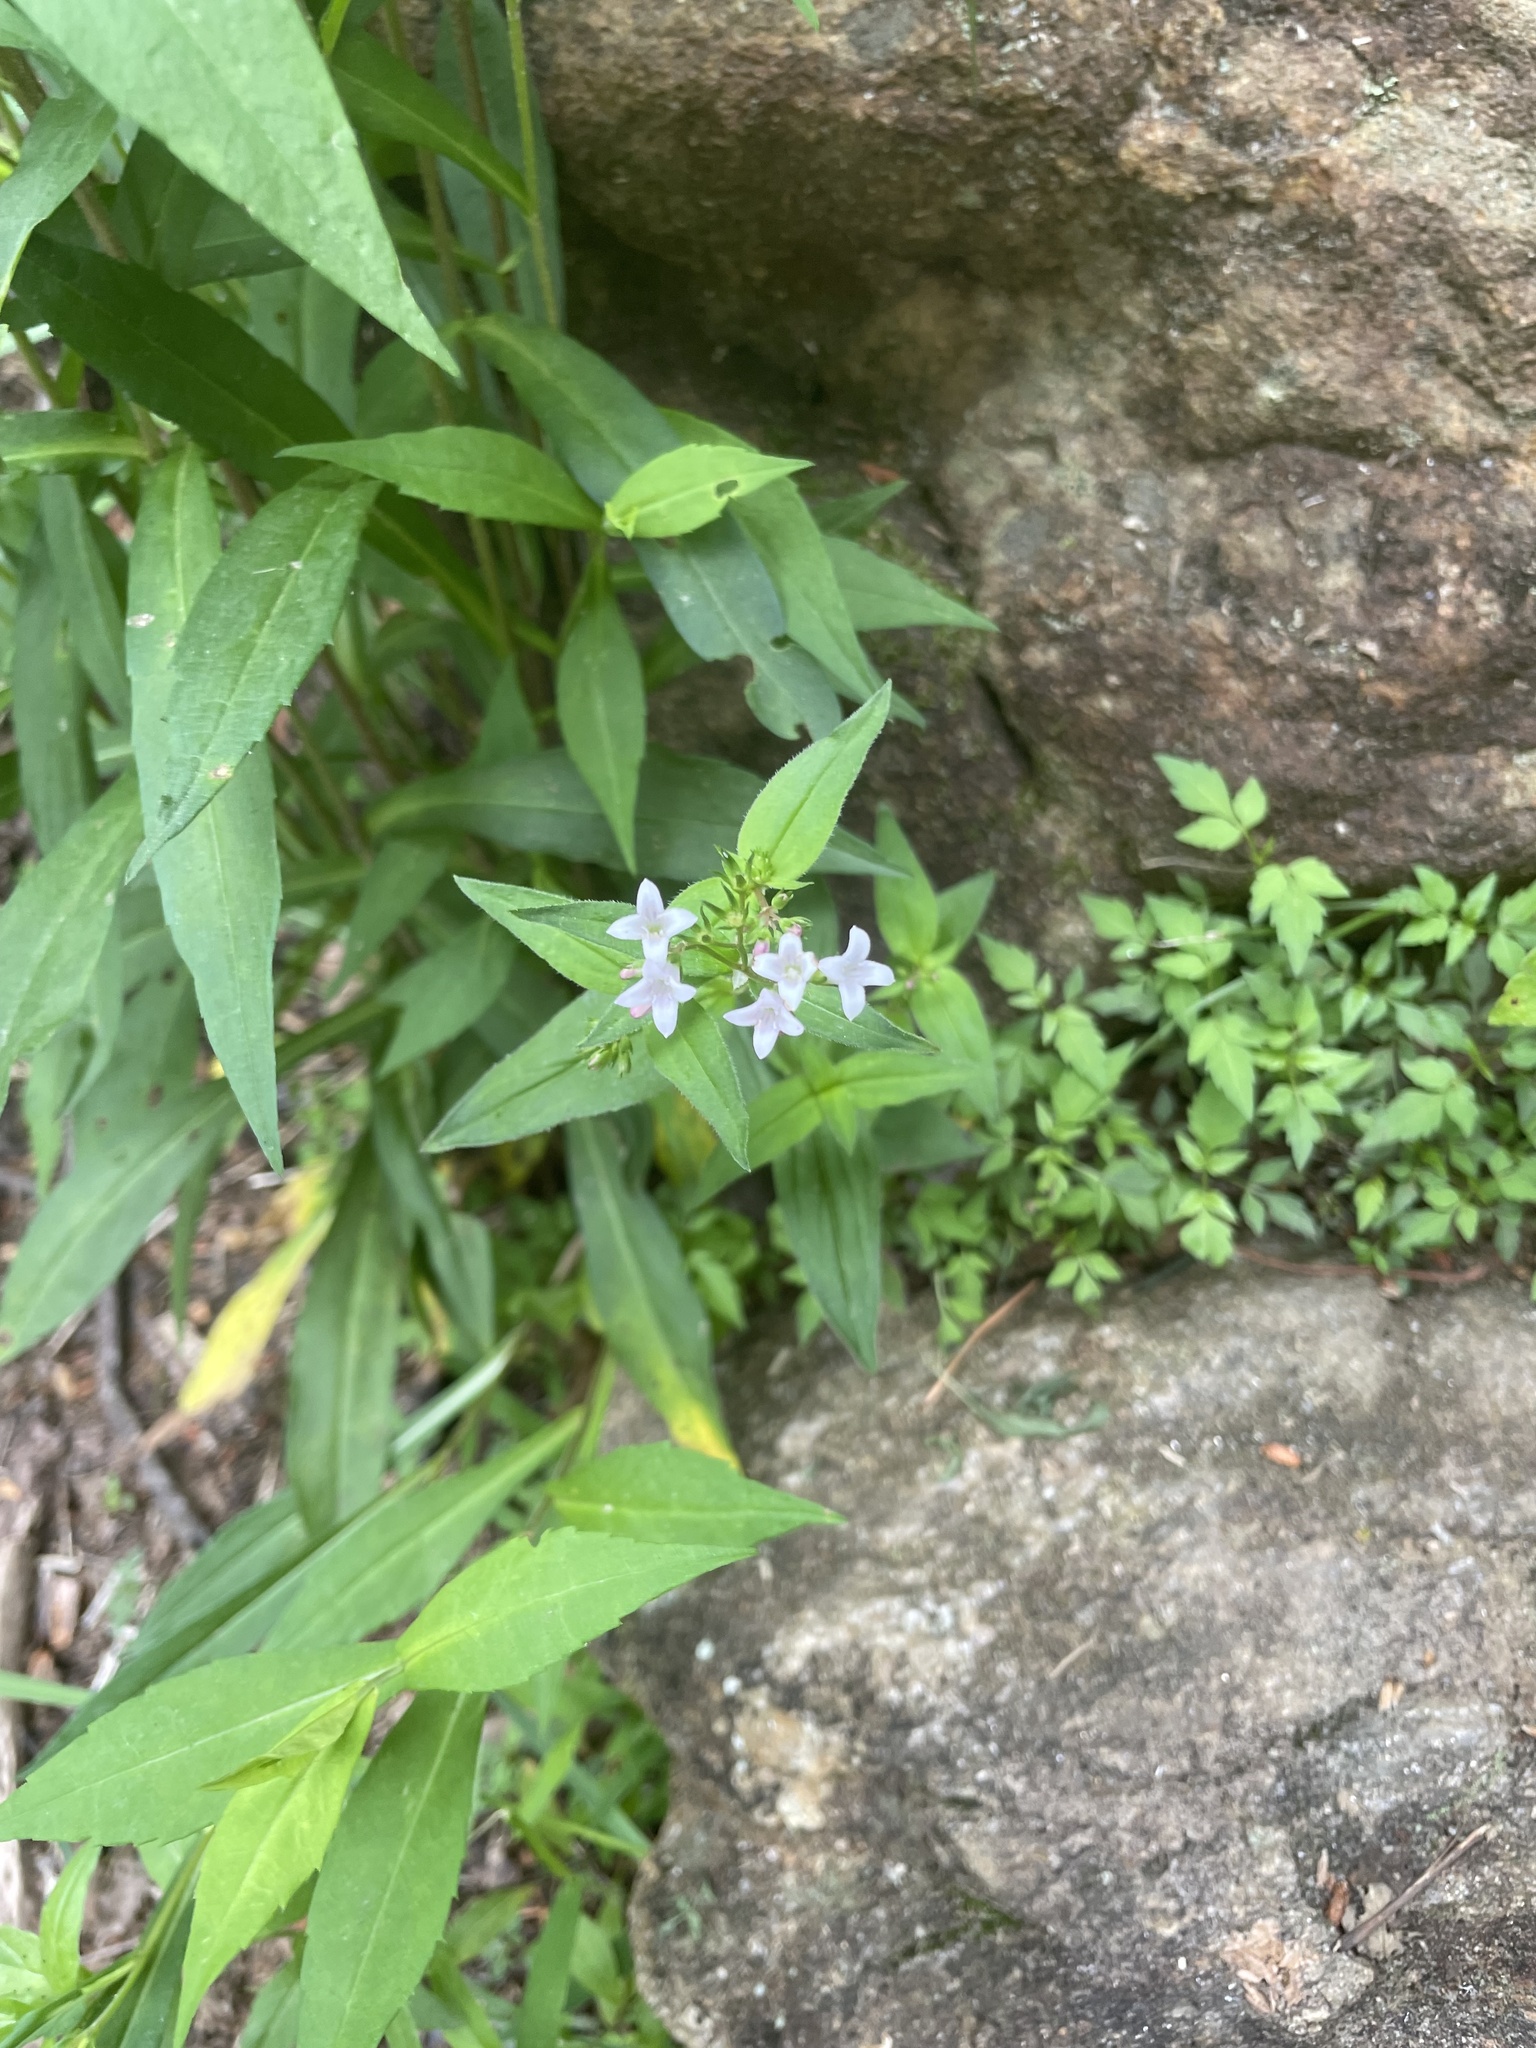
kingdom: Plantae
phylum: Tracheophyta
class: Magnoliopsida
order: Gentianales
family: Rubiaceae
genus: Houstonia
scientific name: Houstonia purpurea
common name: Summer bluet
